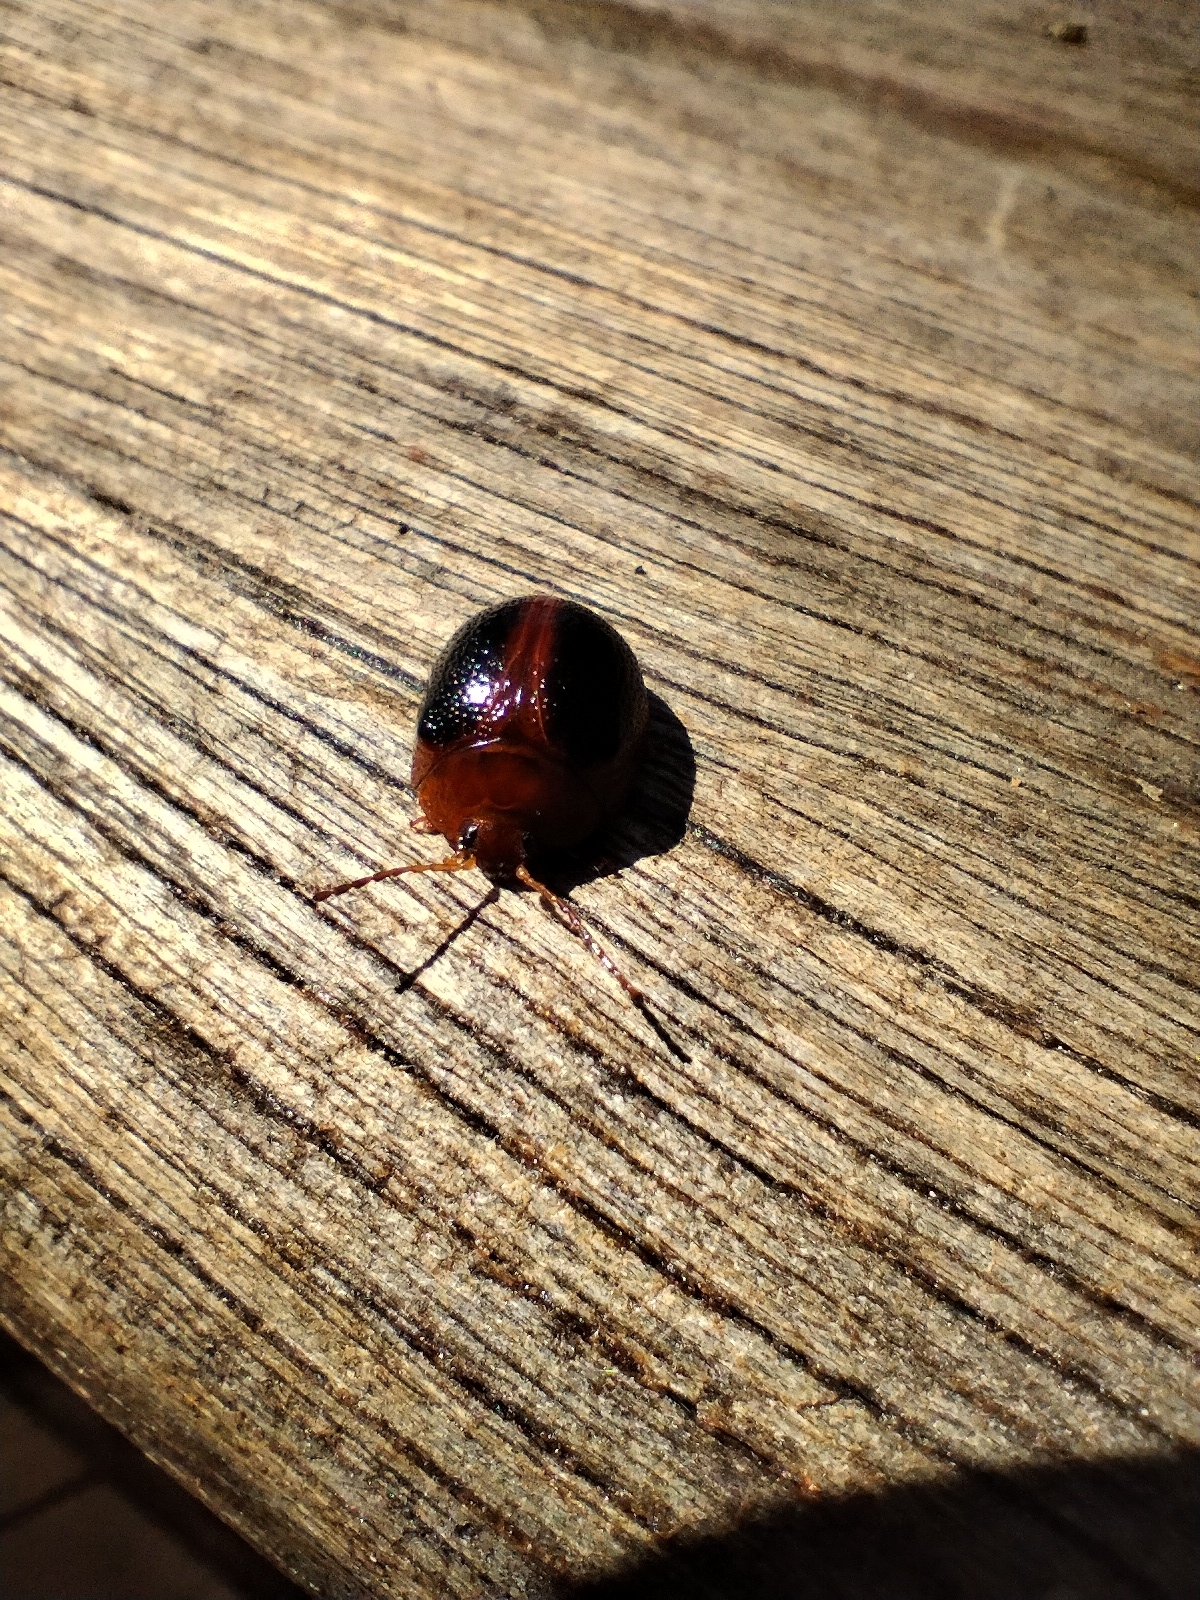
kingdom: Animalia
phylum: Arthropoda
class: Insecta
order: Coleoptera
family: Chrysomelidae
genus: Dicranosterna
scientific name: Dicranosterna
